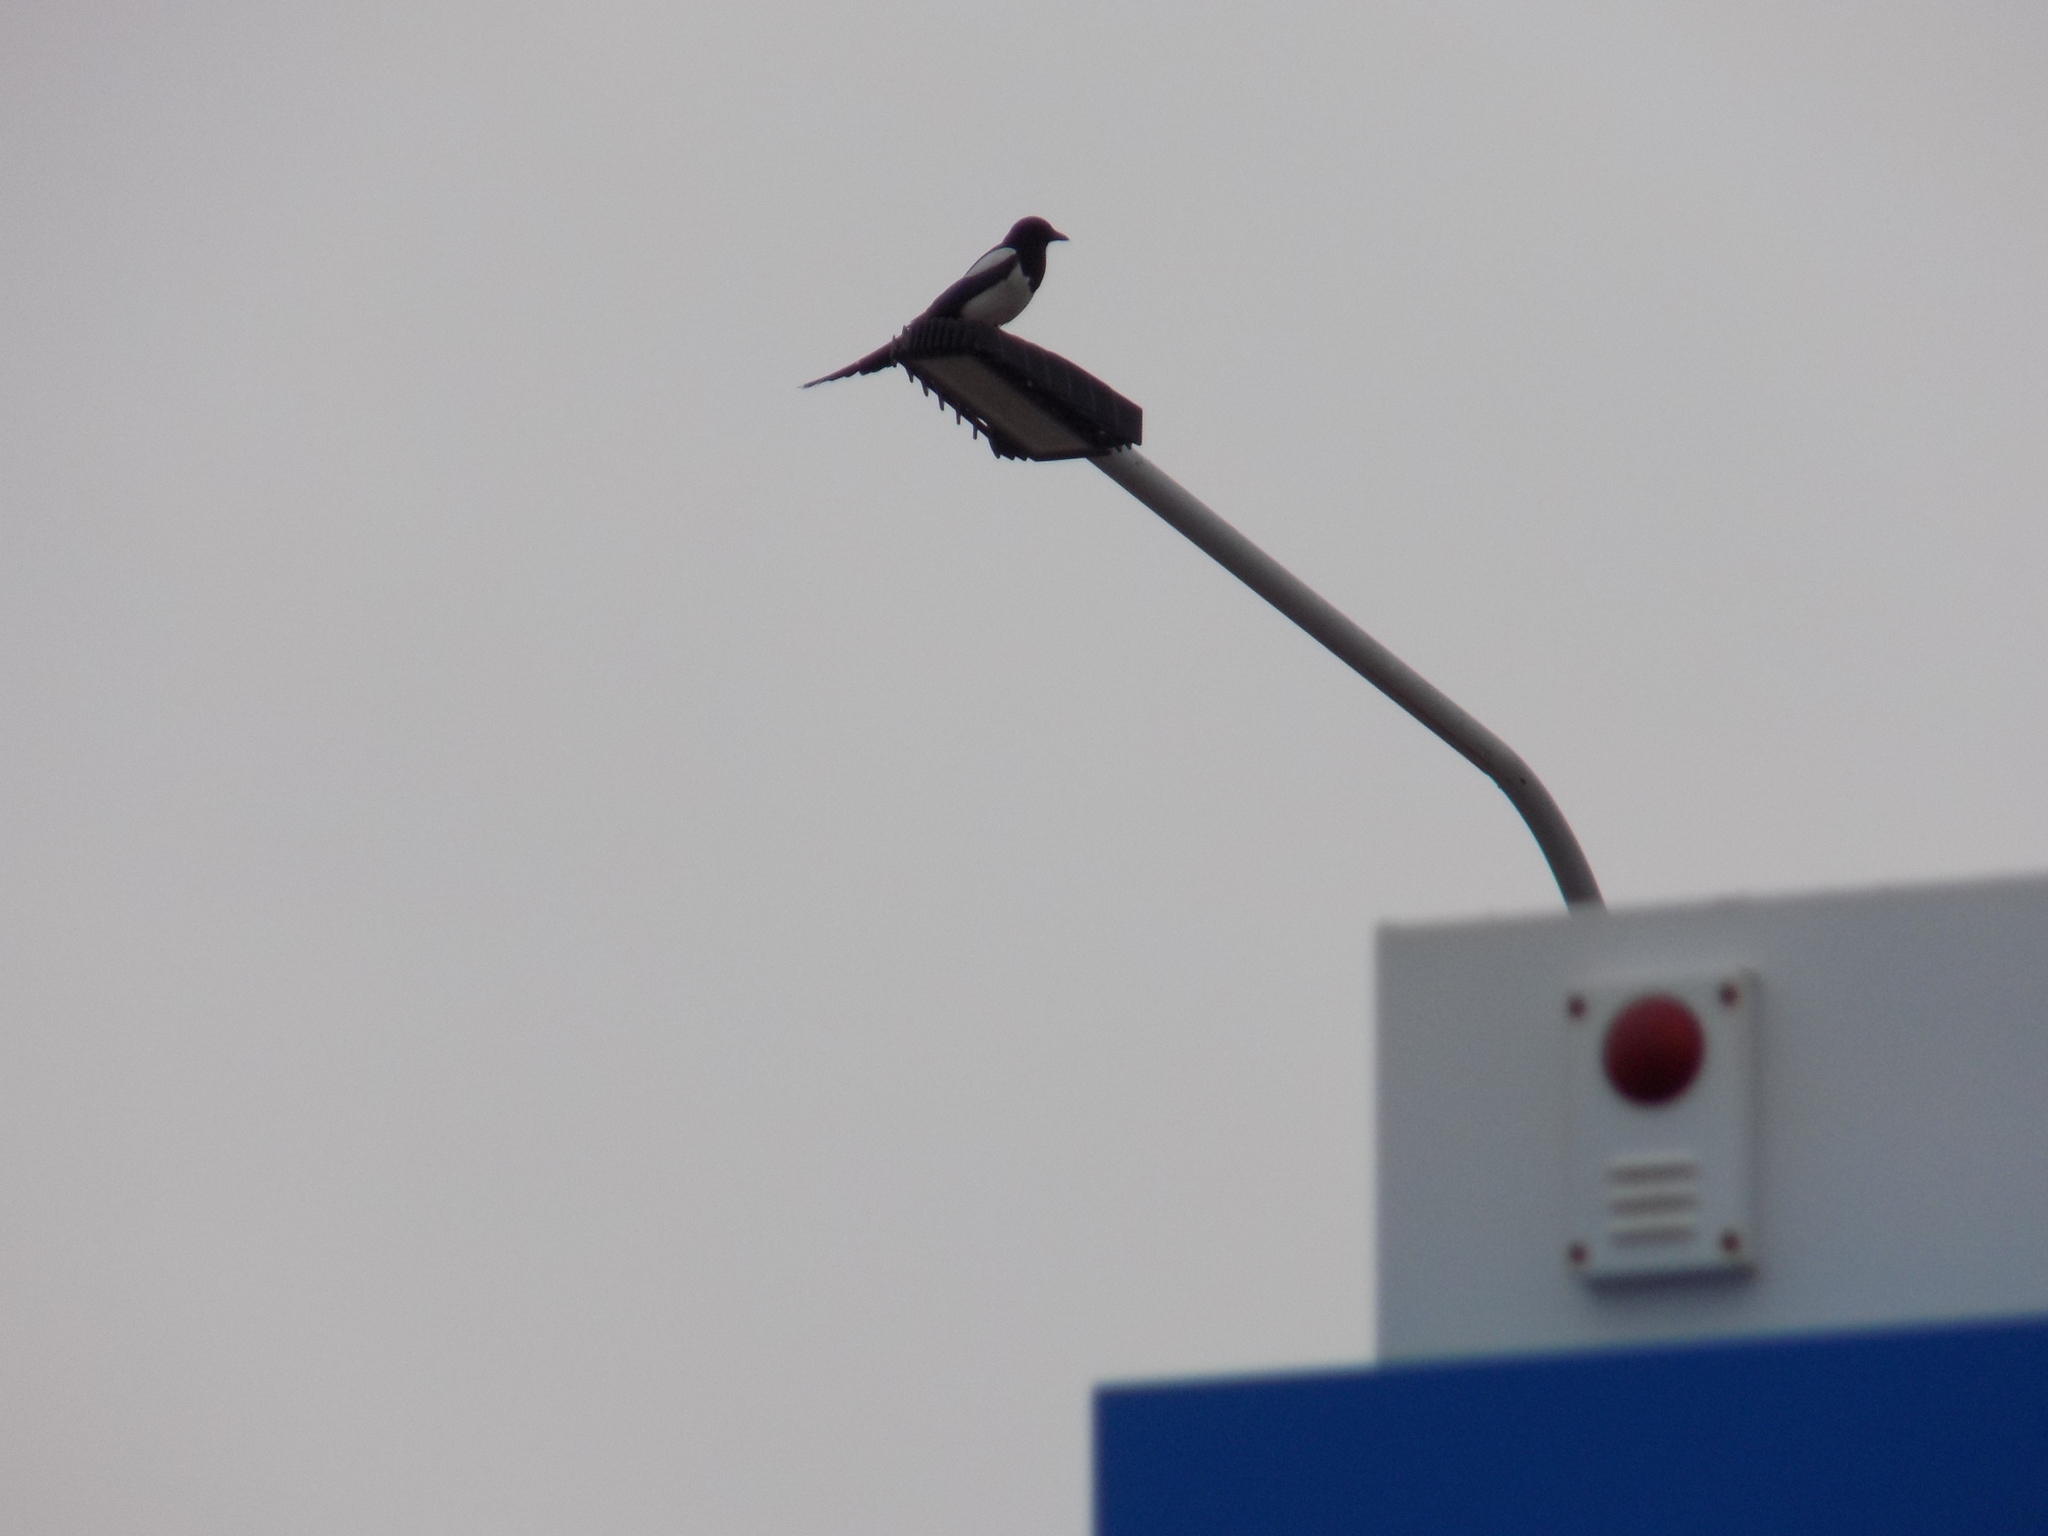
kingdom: Animalia
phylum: Chordata
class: Aves
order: Passeriformes
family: Corvidae
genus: Pica
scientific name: Pica pica
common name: Eurasian magpie
